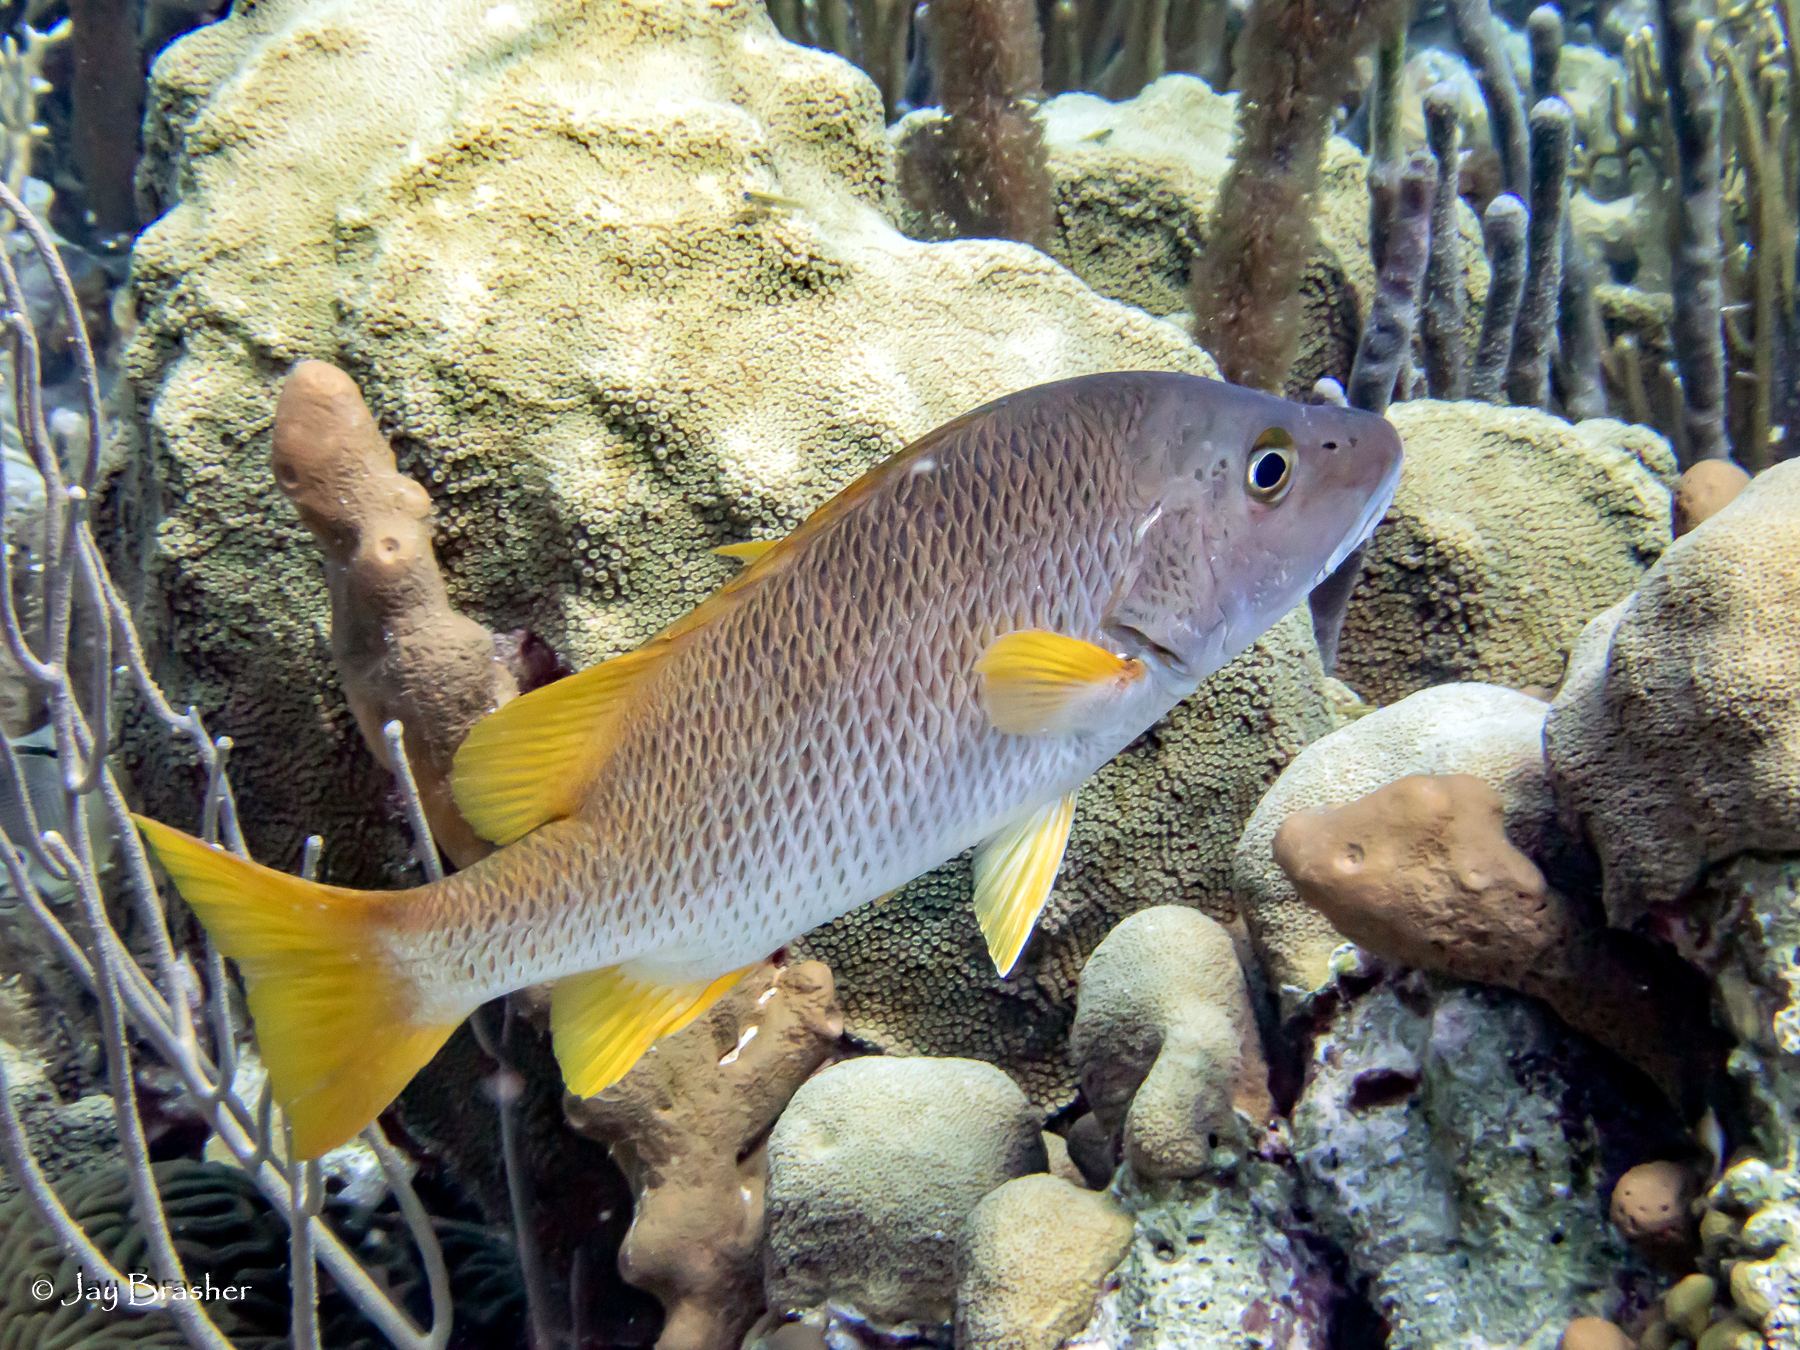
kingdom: Animalia
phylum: Cnidaria
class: Anthozoa
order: Scleractinia
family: Merulinidae
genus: Orbicella
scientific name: Orbicella faveolata
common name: Mountainous star coral
